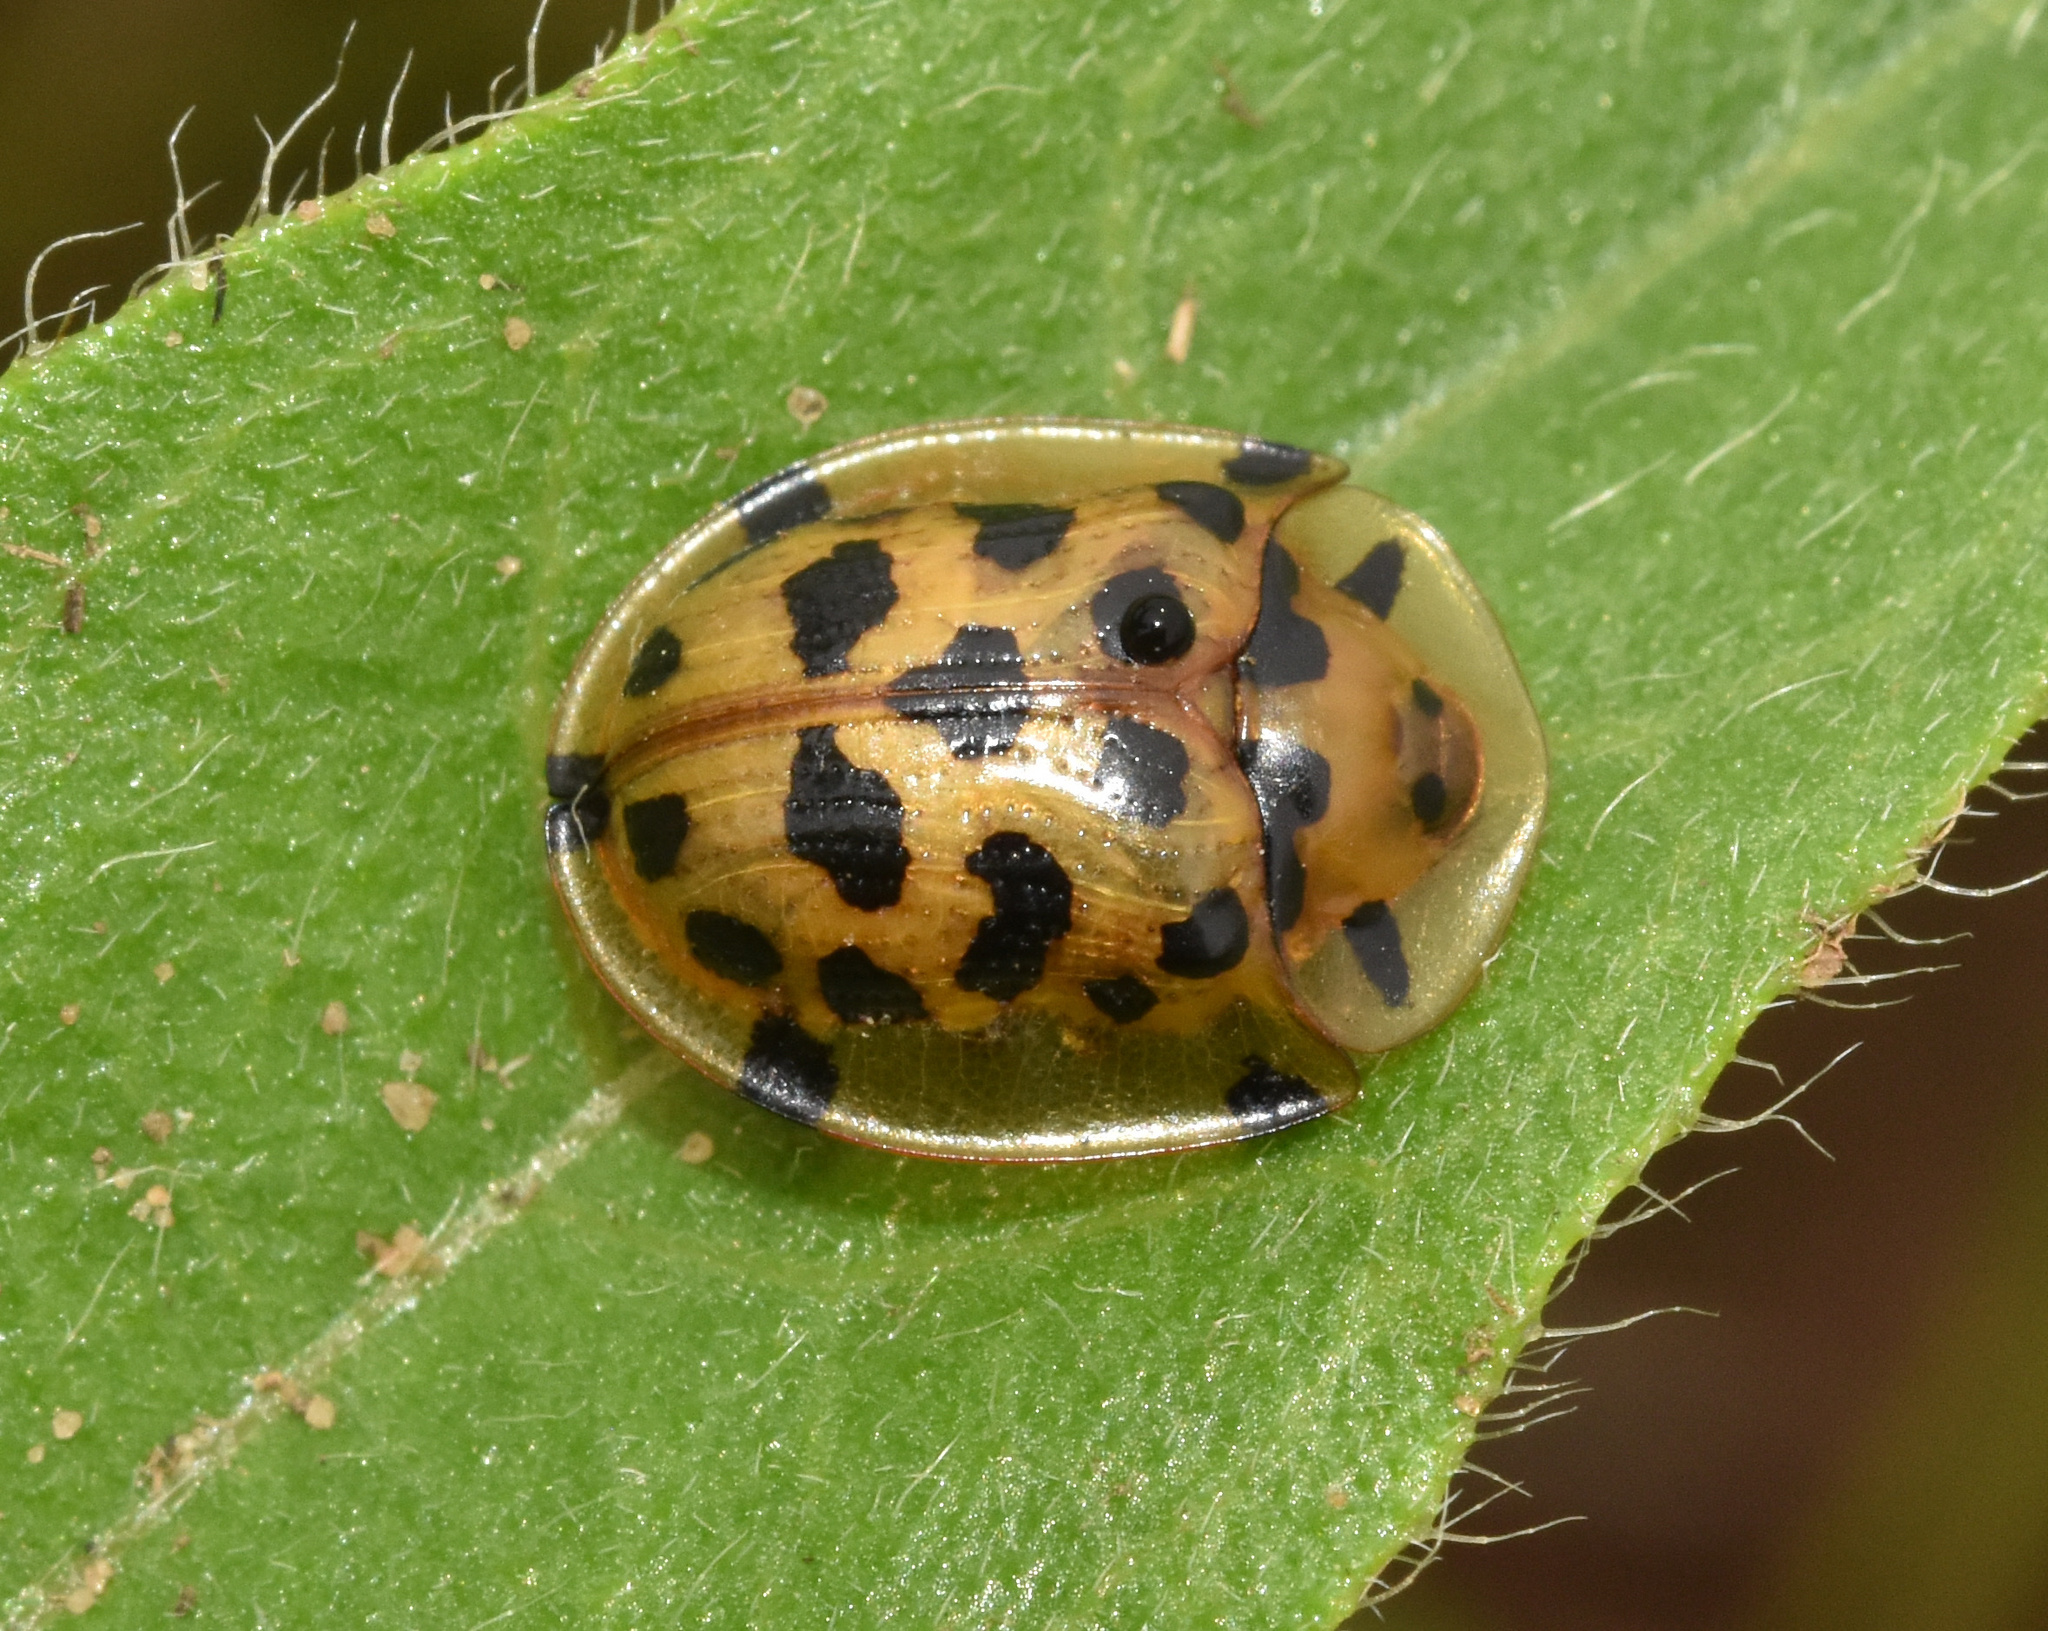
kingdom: Animalia
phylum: Arthropoda
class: Insecta
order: Coleoptera
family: Chrysomelidae
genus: Aethiopocassis
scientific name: Aethiopocassis vigintimaculata
